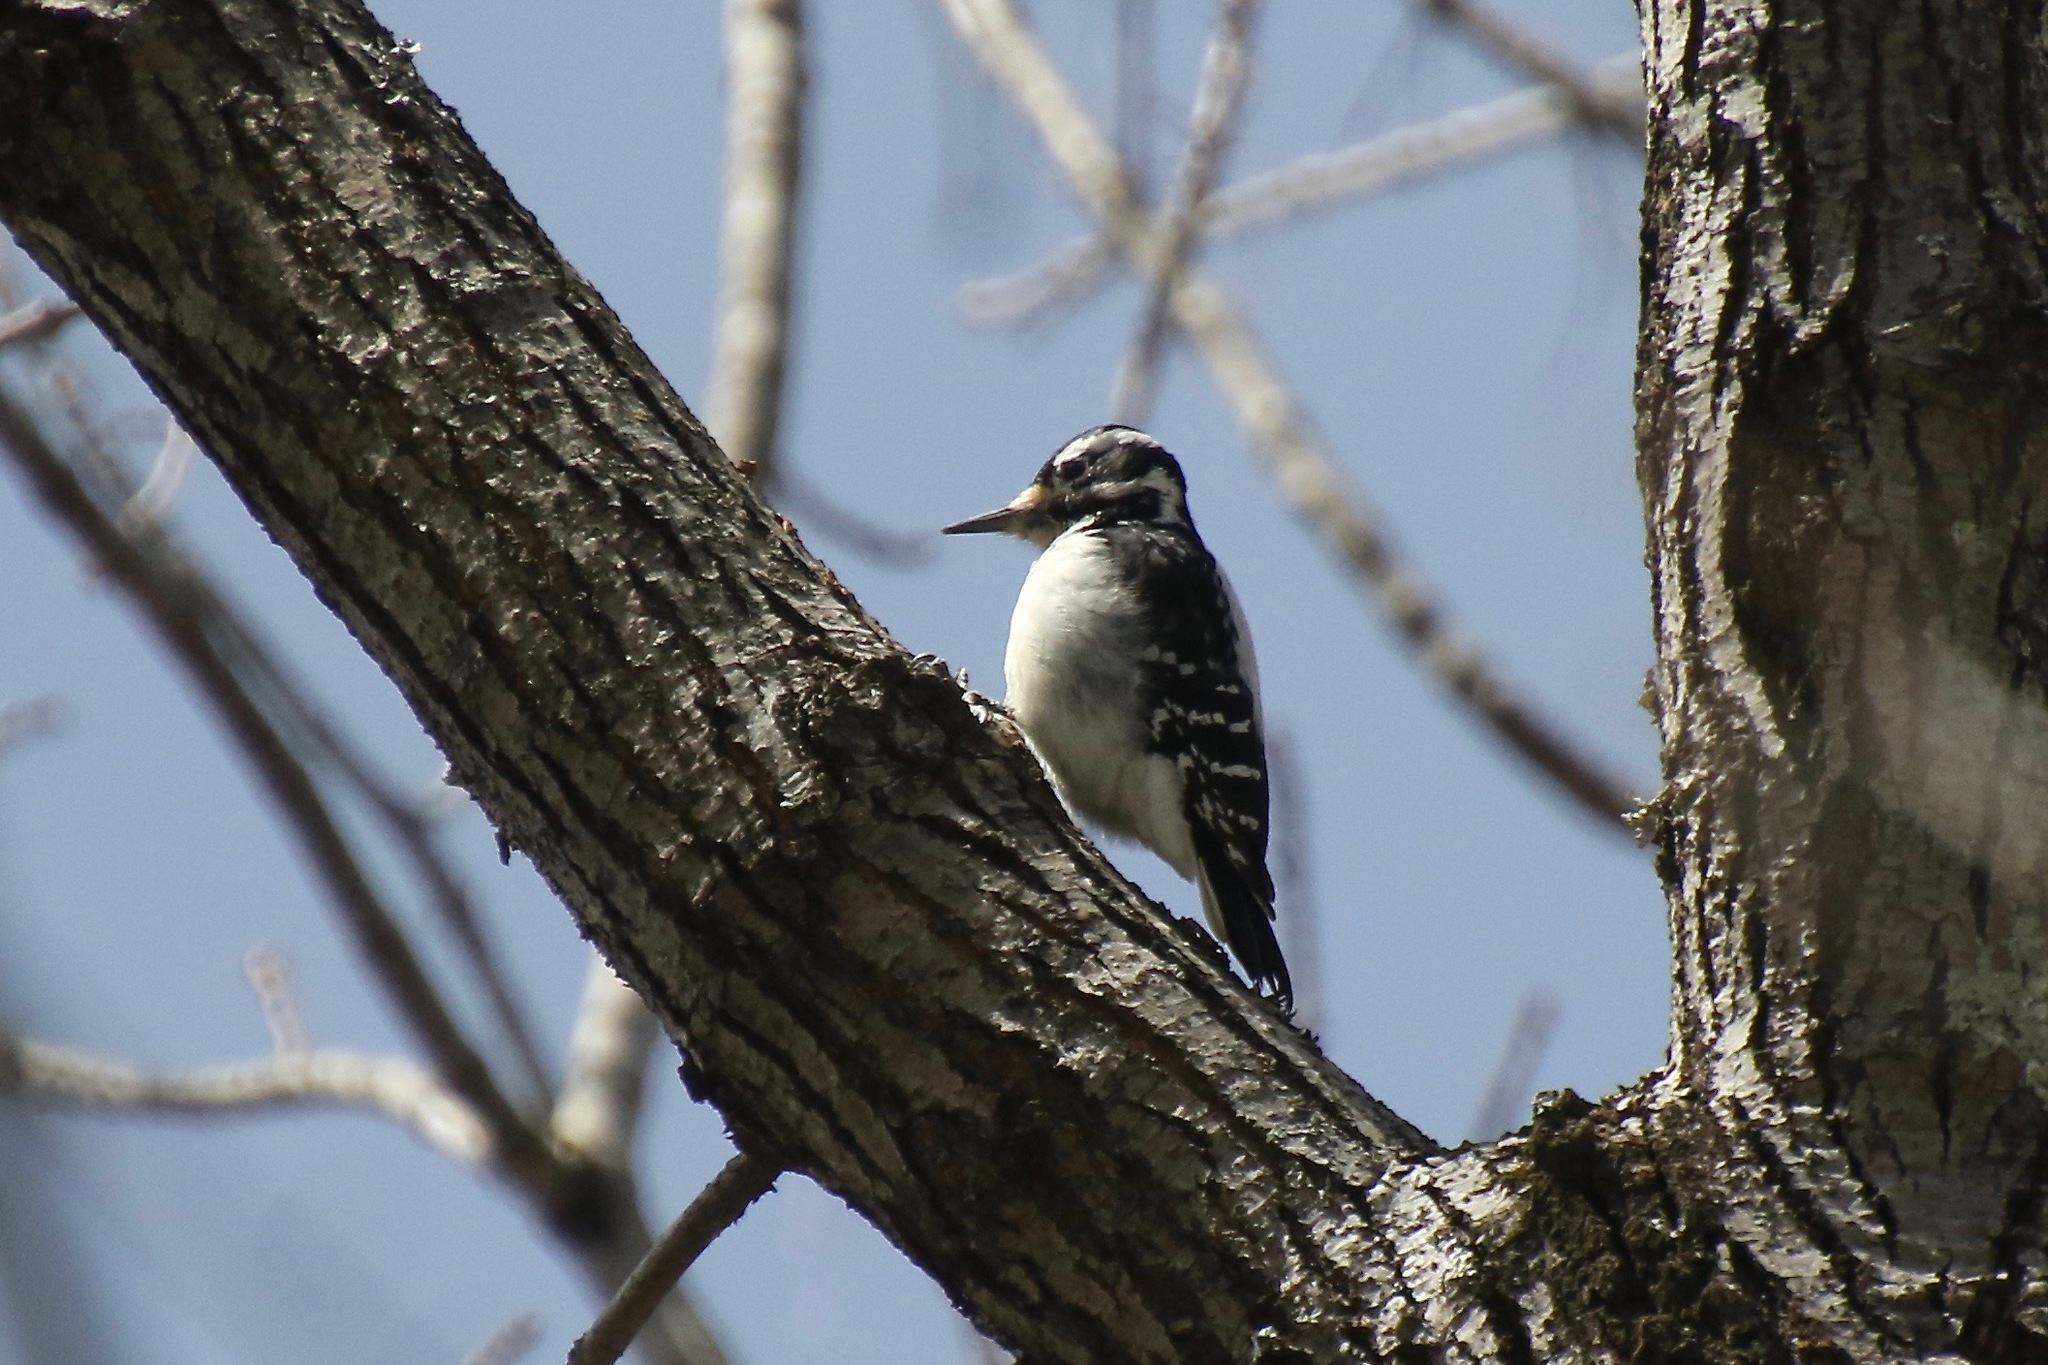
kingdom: Animalia
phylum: Chordata
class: Aves
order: Piciformes
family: Picidae
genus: Leuconotopicus
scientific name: Leuconotopicus villosus
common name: Hairy woodpecker
